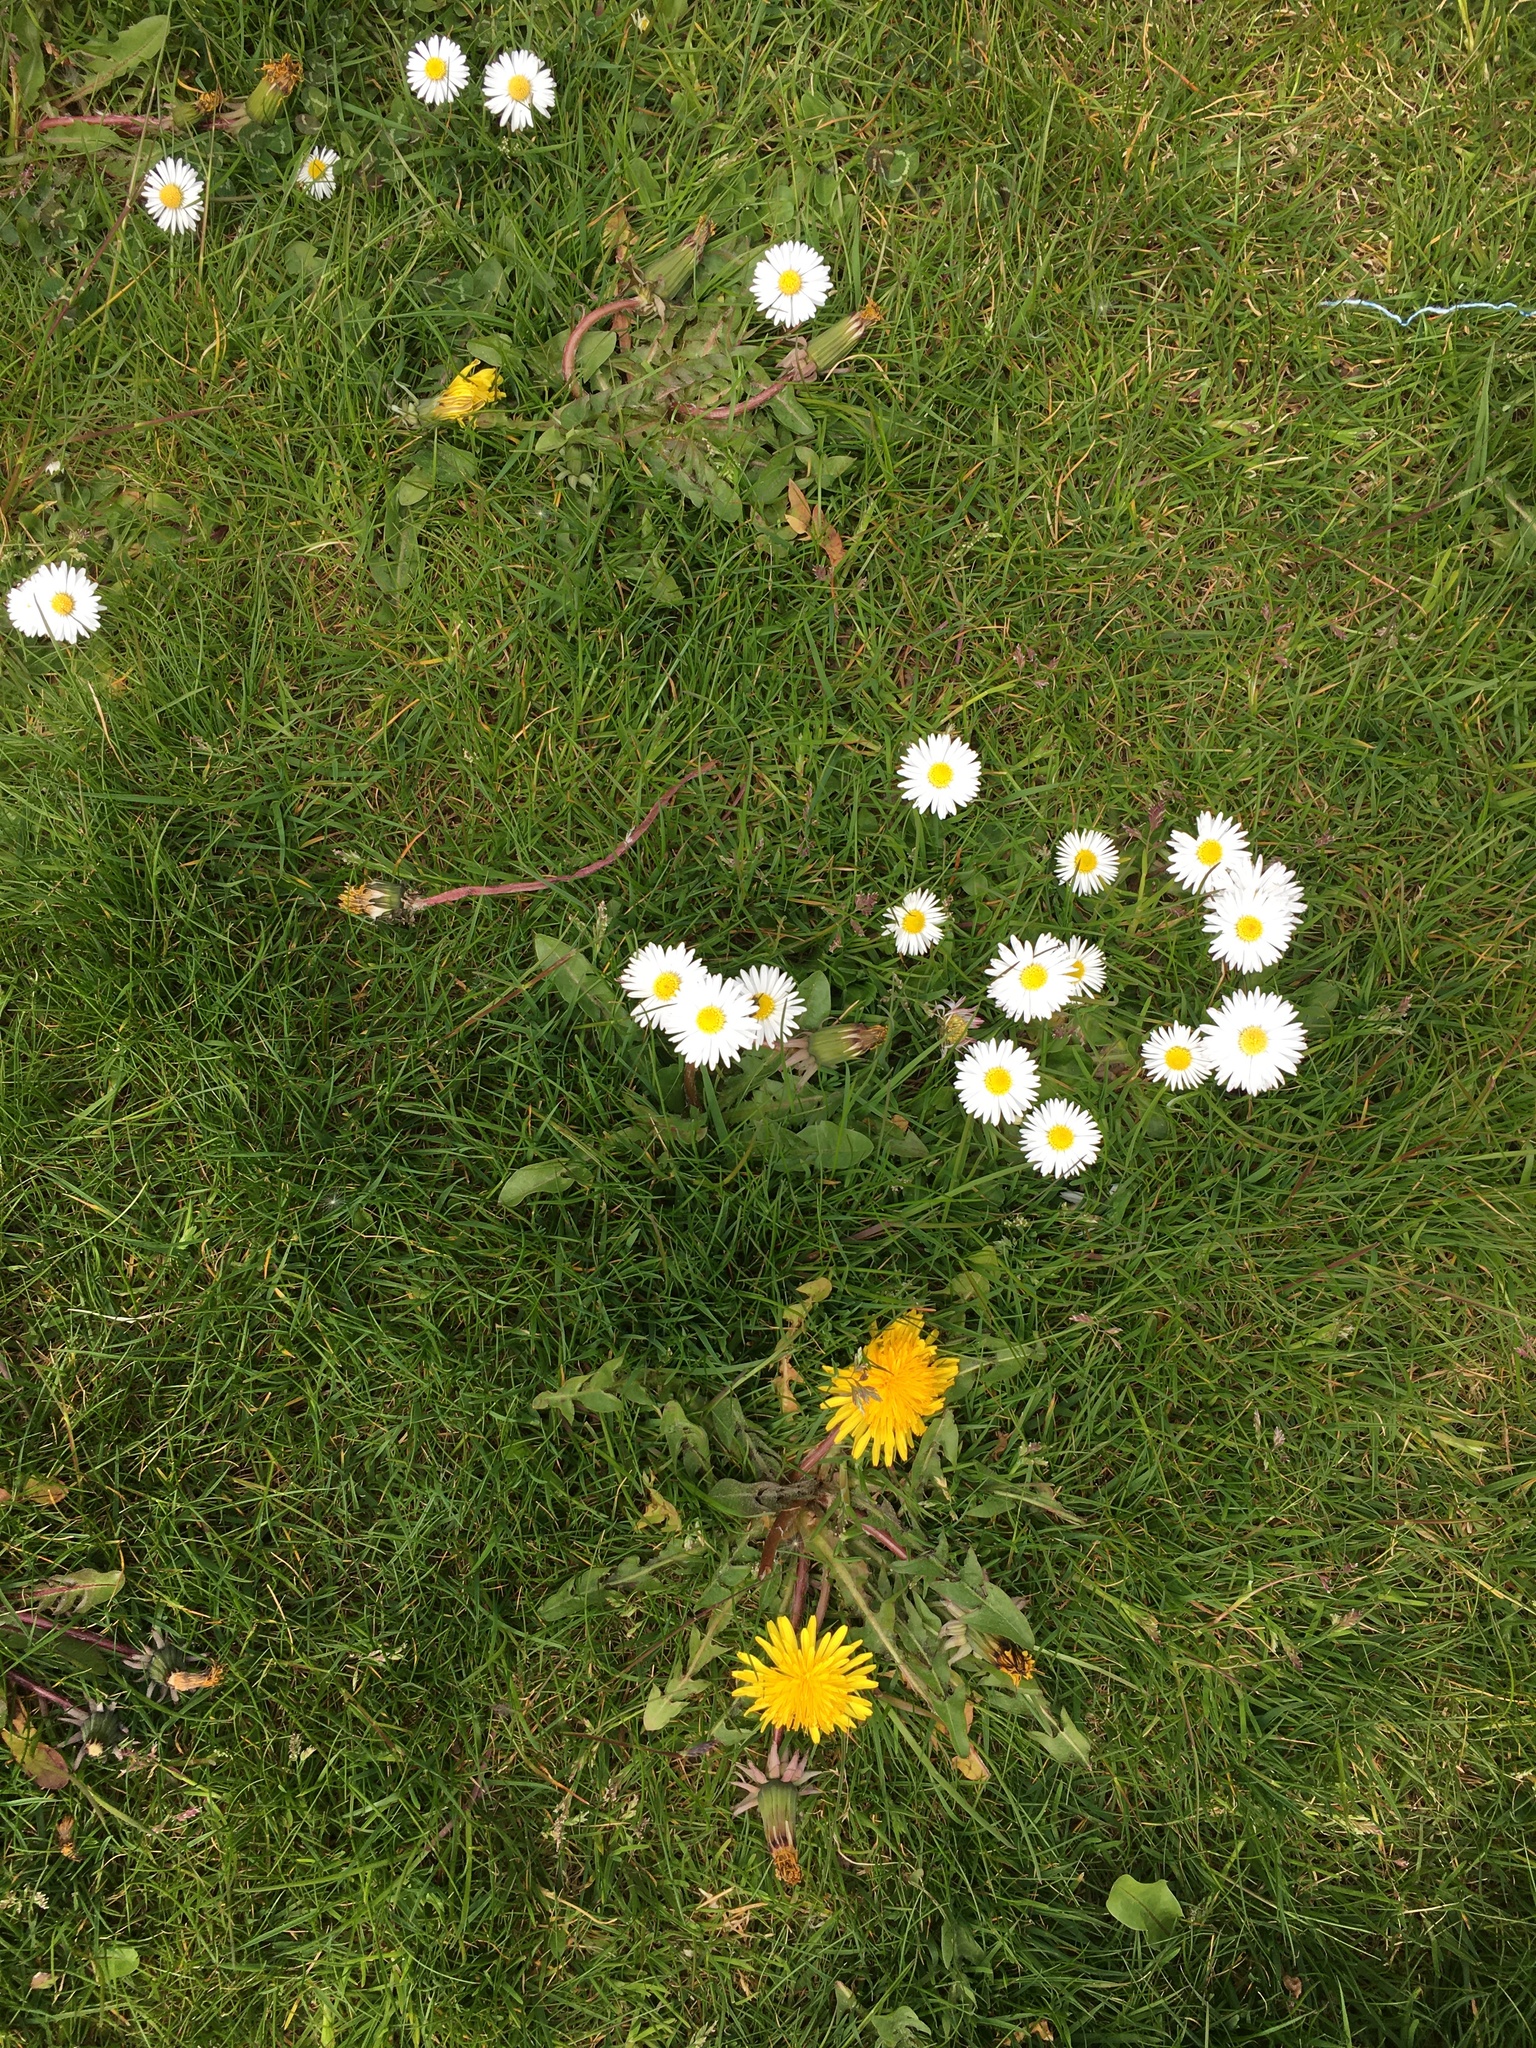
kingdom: Plantae
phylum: Tracheophyta
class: Magnoliopsida
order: Asterales
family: Asteraceae
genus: Bellis
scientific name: Bellis perennis
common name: Lawndaisy
